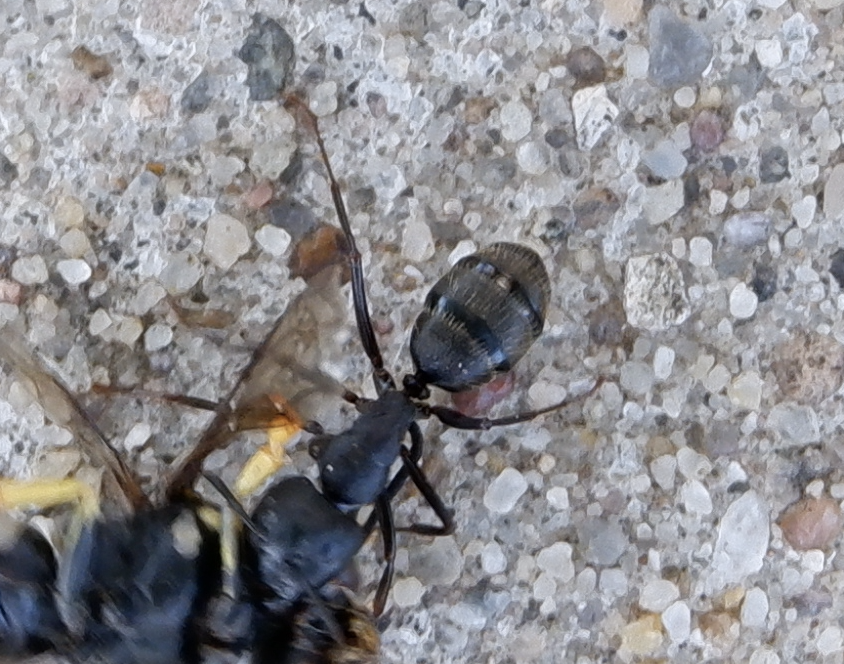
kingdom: Animalia
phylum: Arthropoda
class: Insecta
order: Hymenoptera
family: Formicidae
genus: Camponotus
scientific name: Camponotus pennsylvanicus
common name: Black carpenter ant
